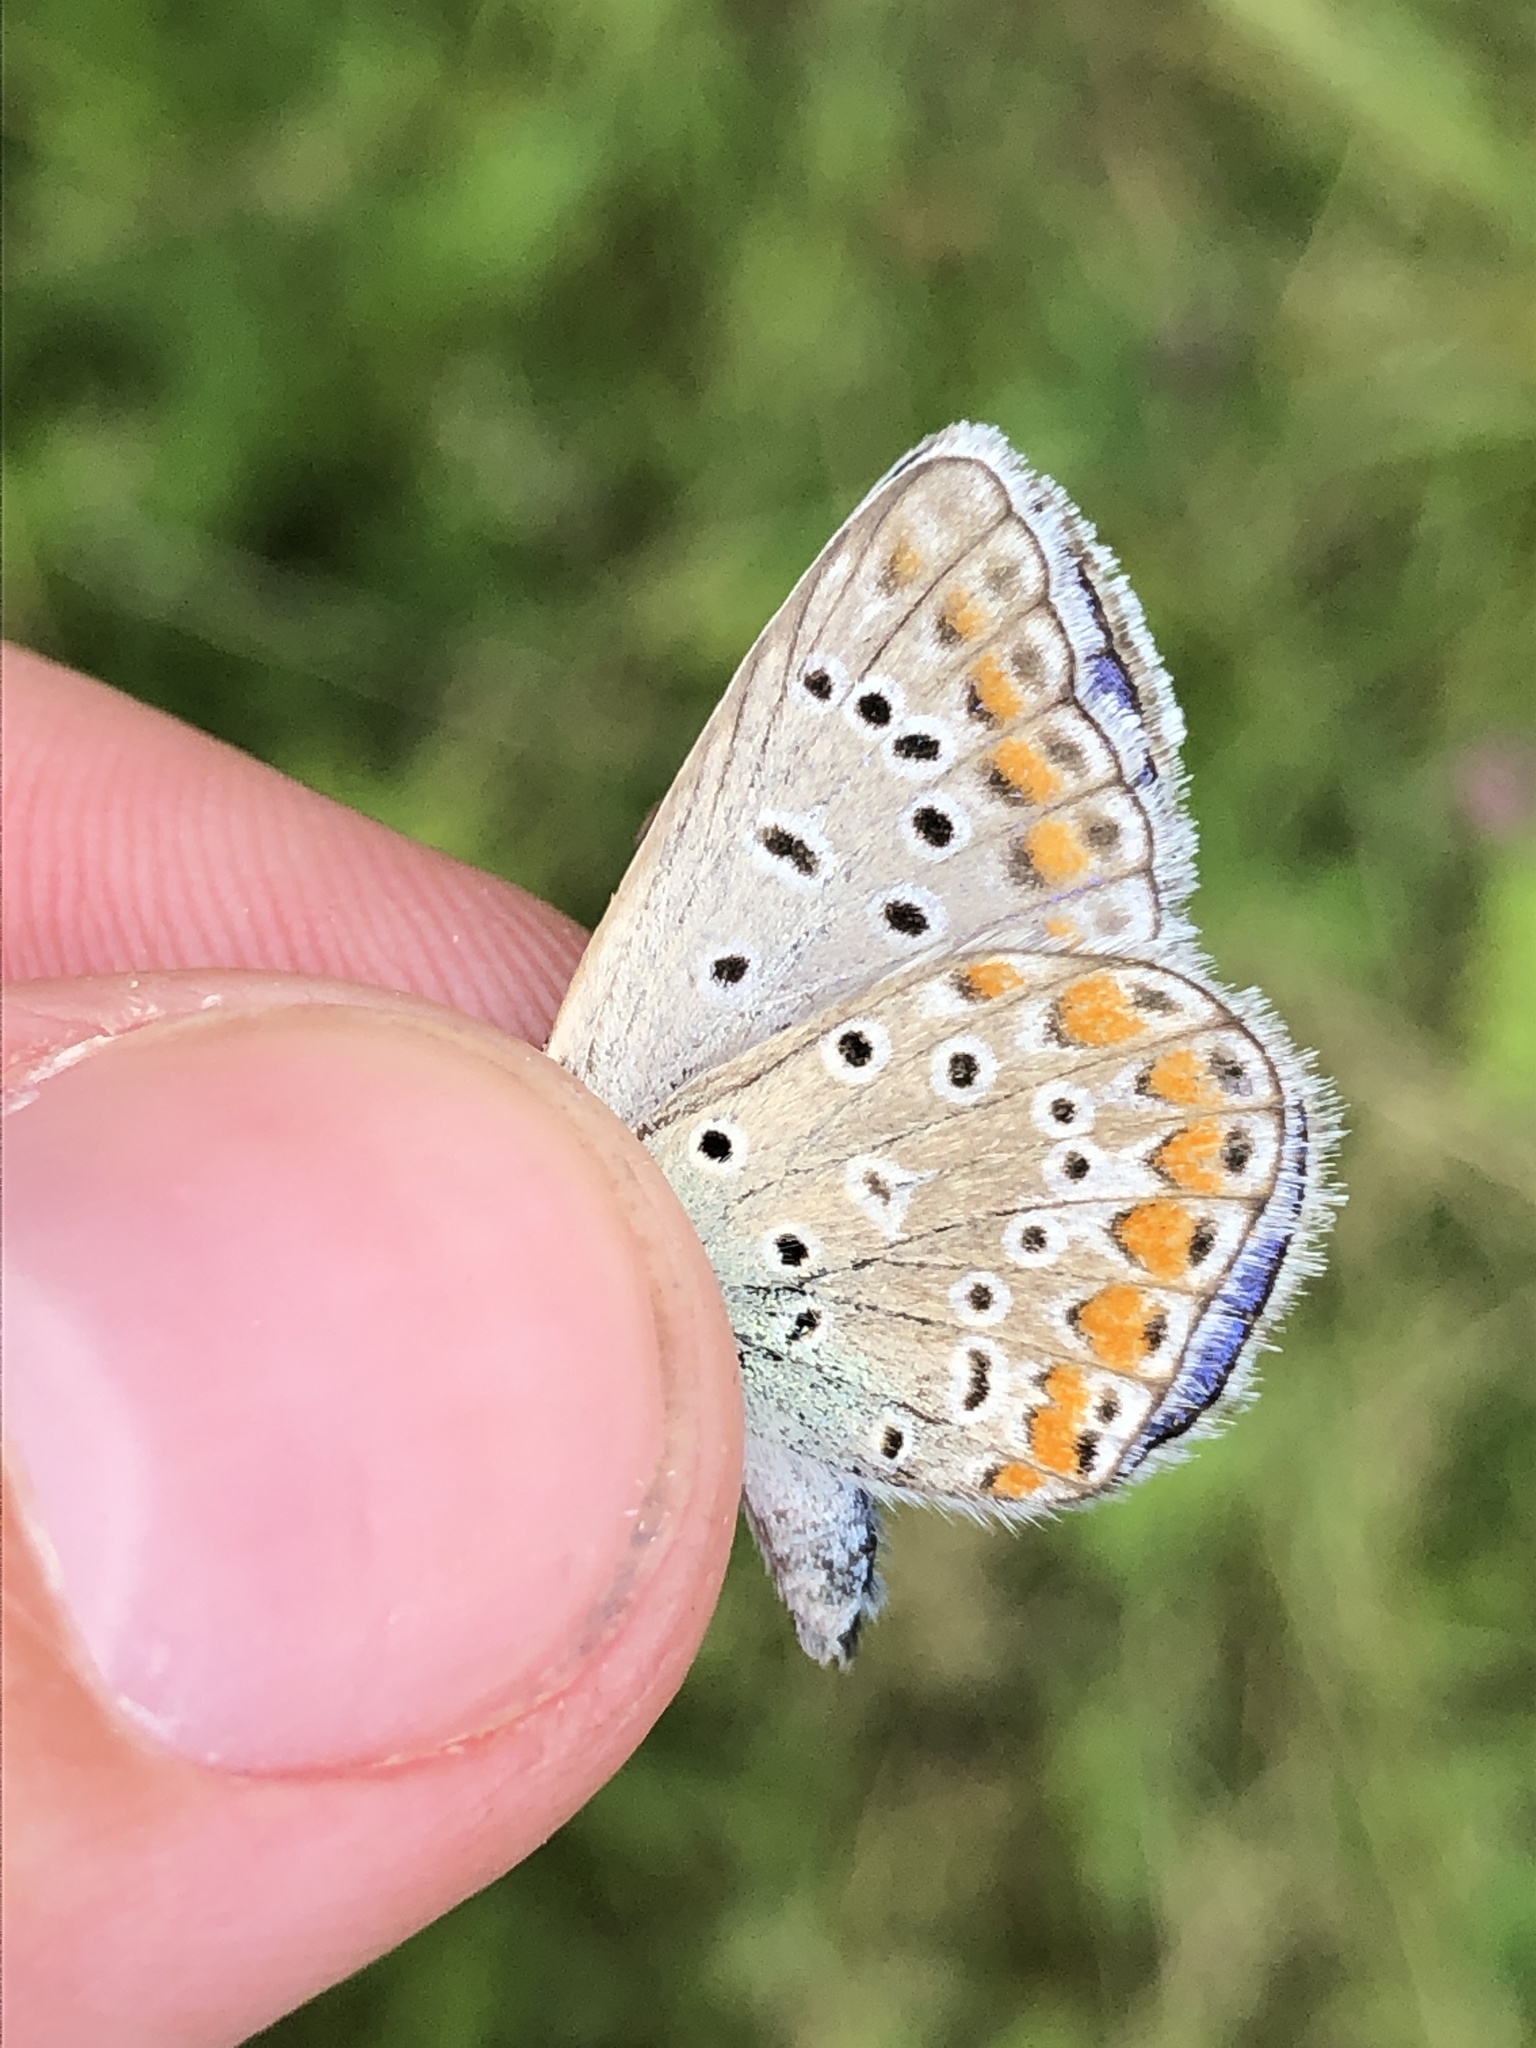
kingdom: Animalia
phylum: Arthropoda
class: Insecta
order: Lepidoptera
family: Lycaenidae
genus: Polyommatus
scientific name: Polyommatus icarus
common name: Common blue
